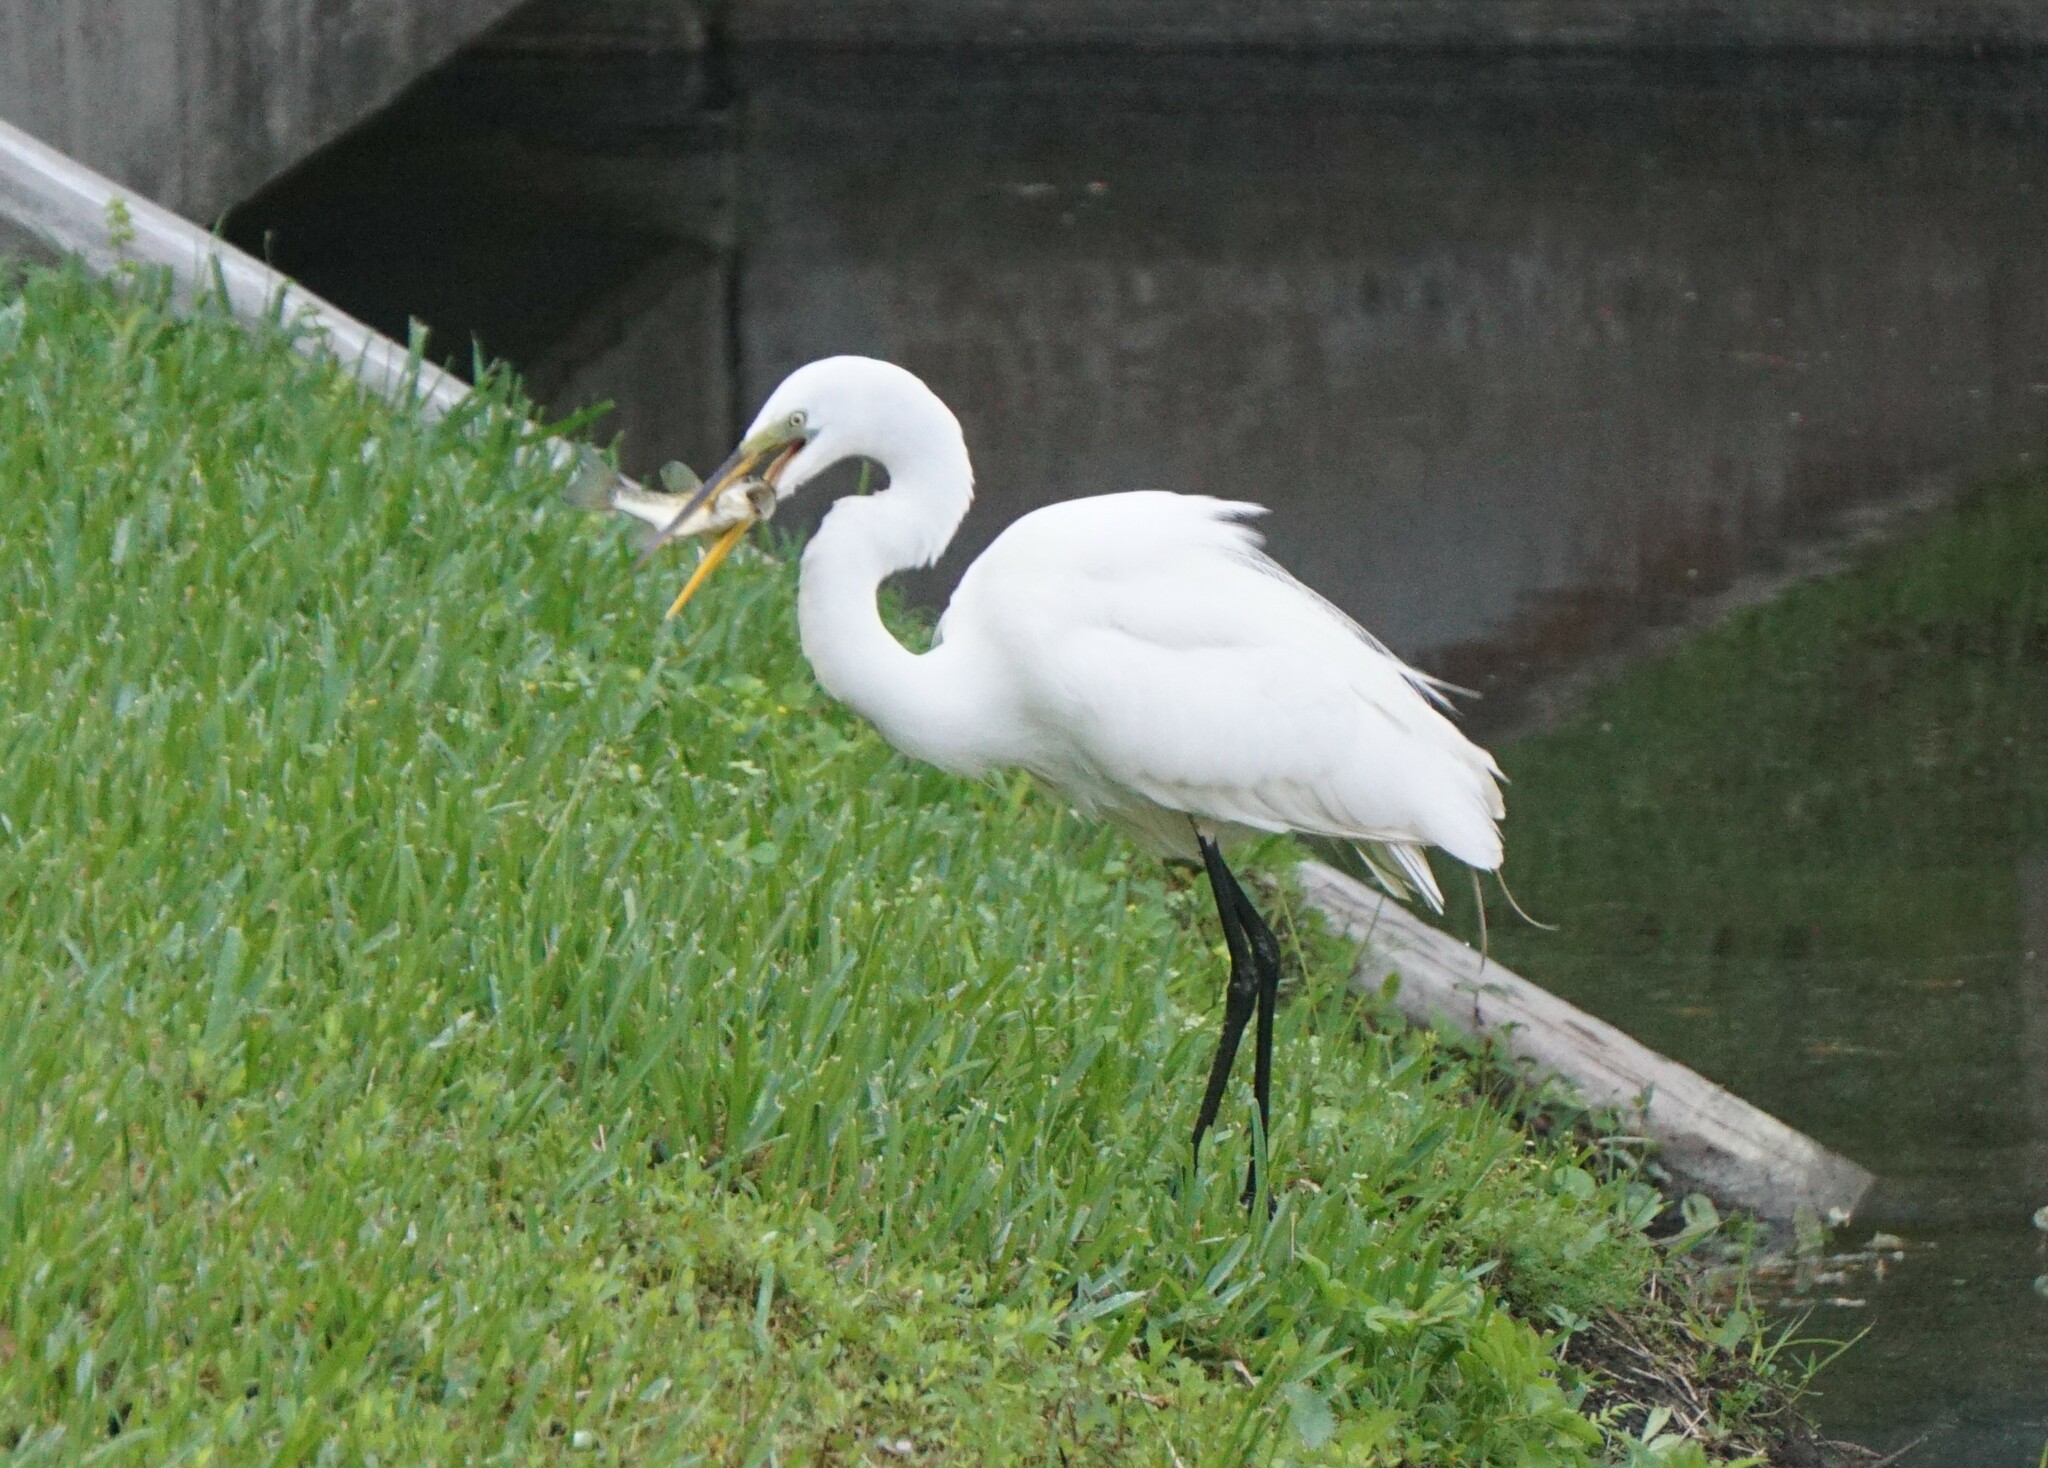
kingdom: Animalia
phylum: Chordata
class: Aves
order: Pelecaniformes
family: Ardeidae
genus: Ardea
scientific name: Ardea alba
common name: Great egret
